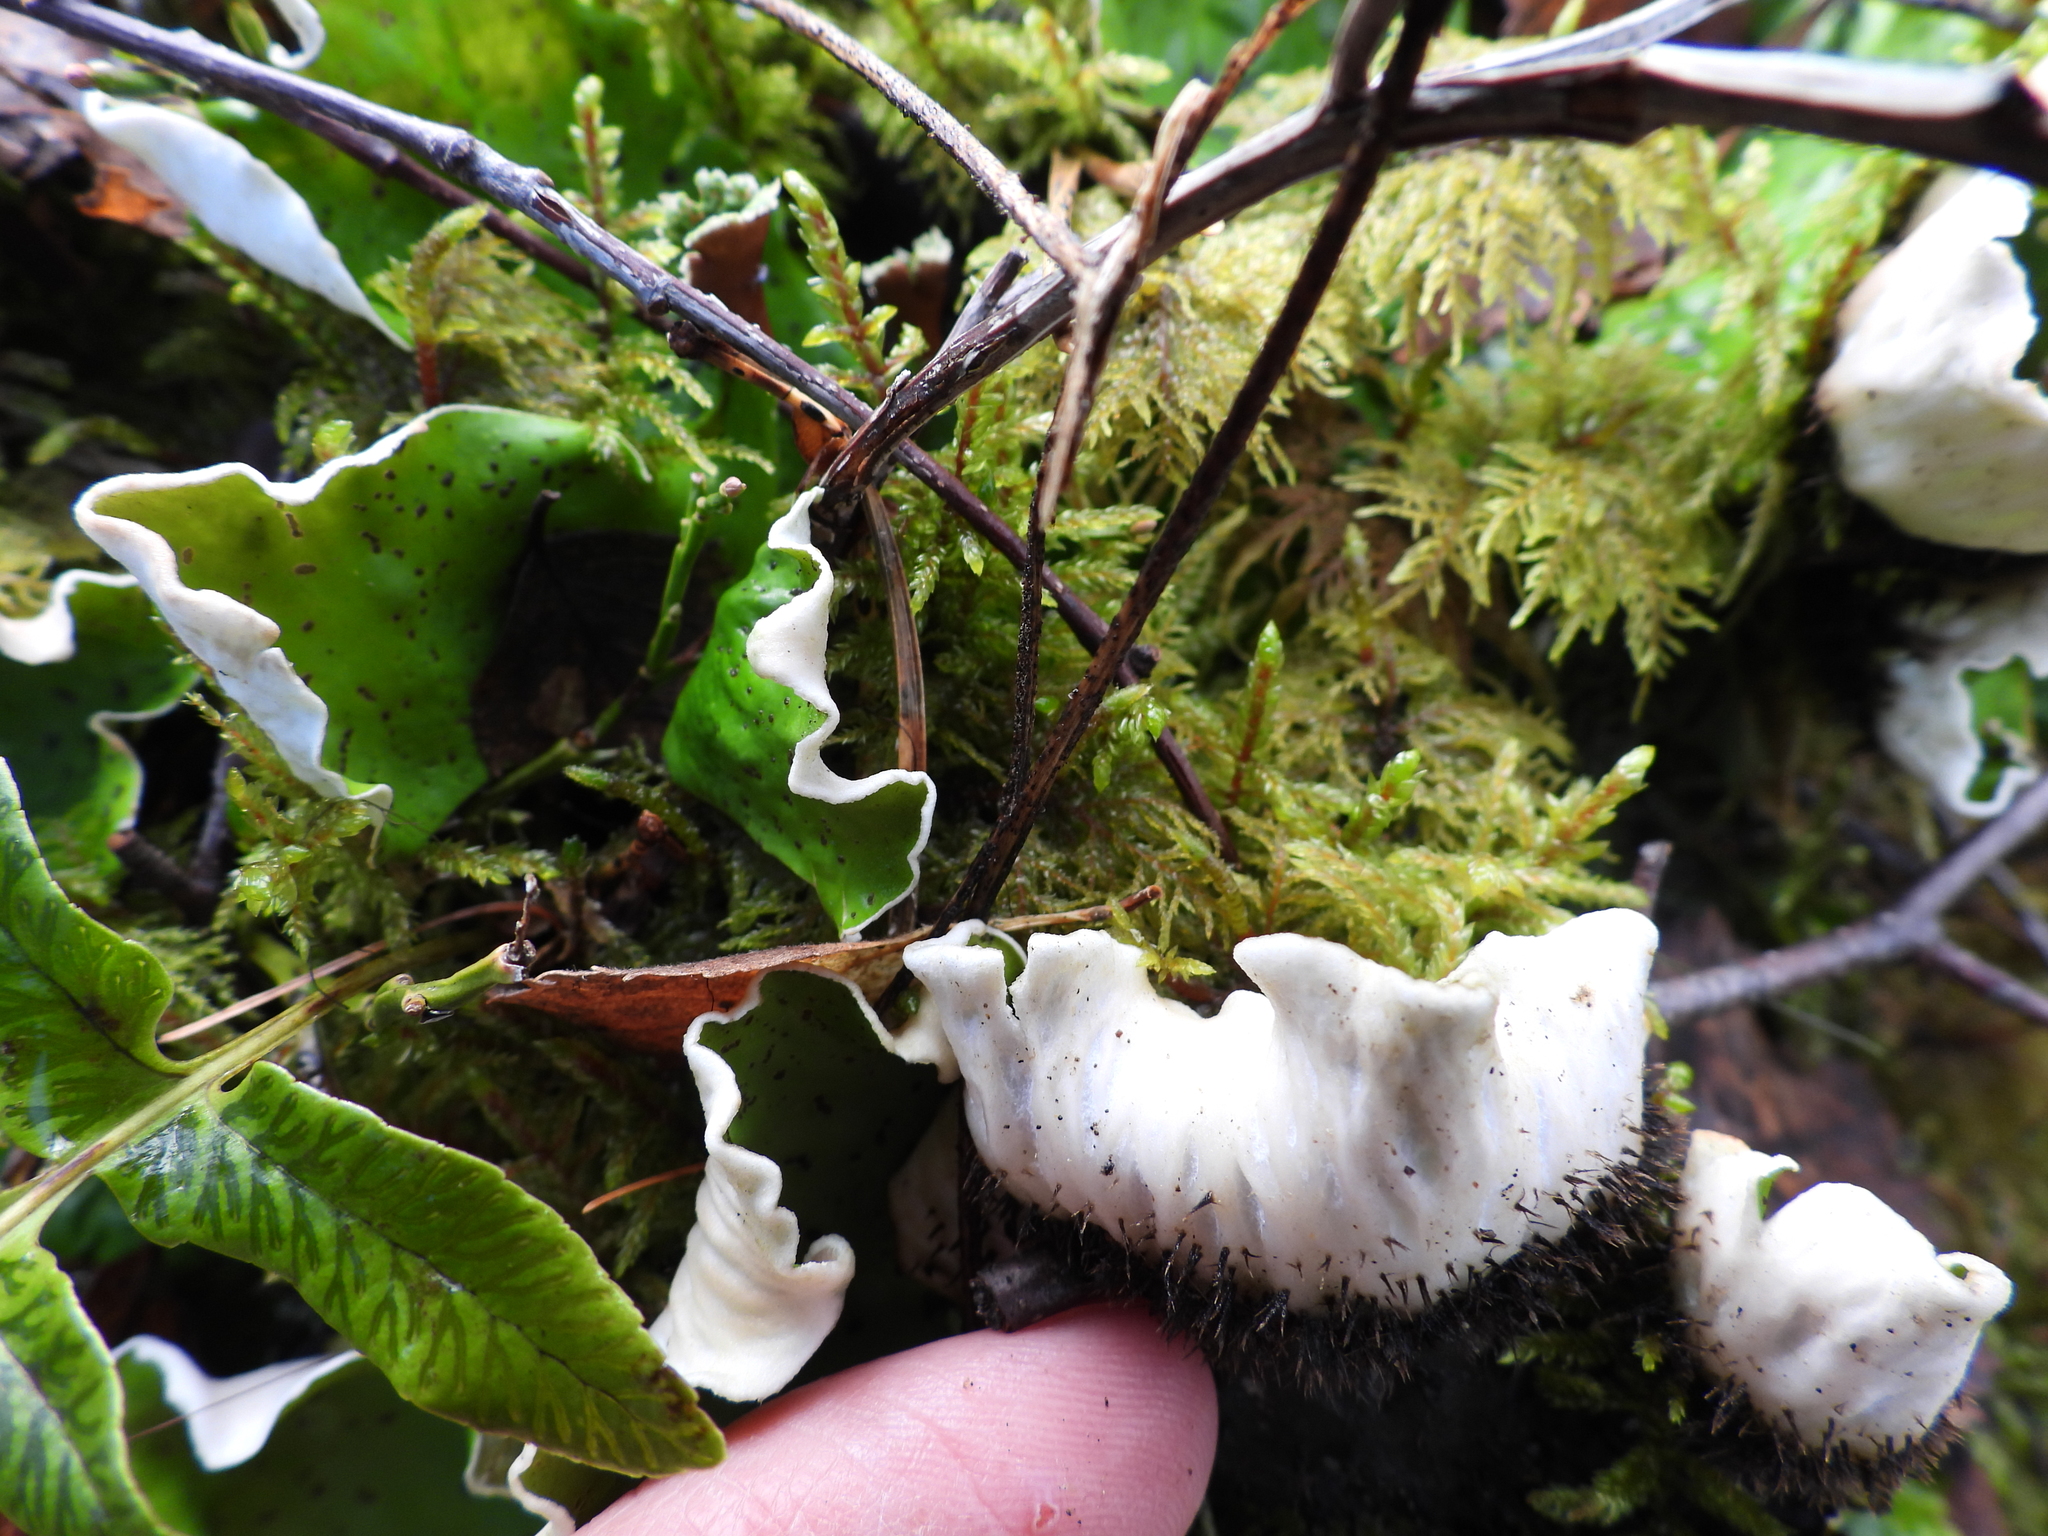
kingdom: Fungi
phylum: Ascomycota
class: Lecanoromycetes
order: Peltigerales
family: Peltigeraceae
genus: Peltigera
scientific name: Peltigera aphthosa
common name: Common freckle pelt lichen
